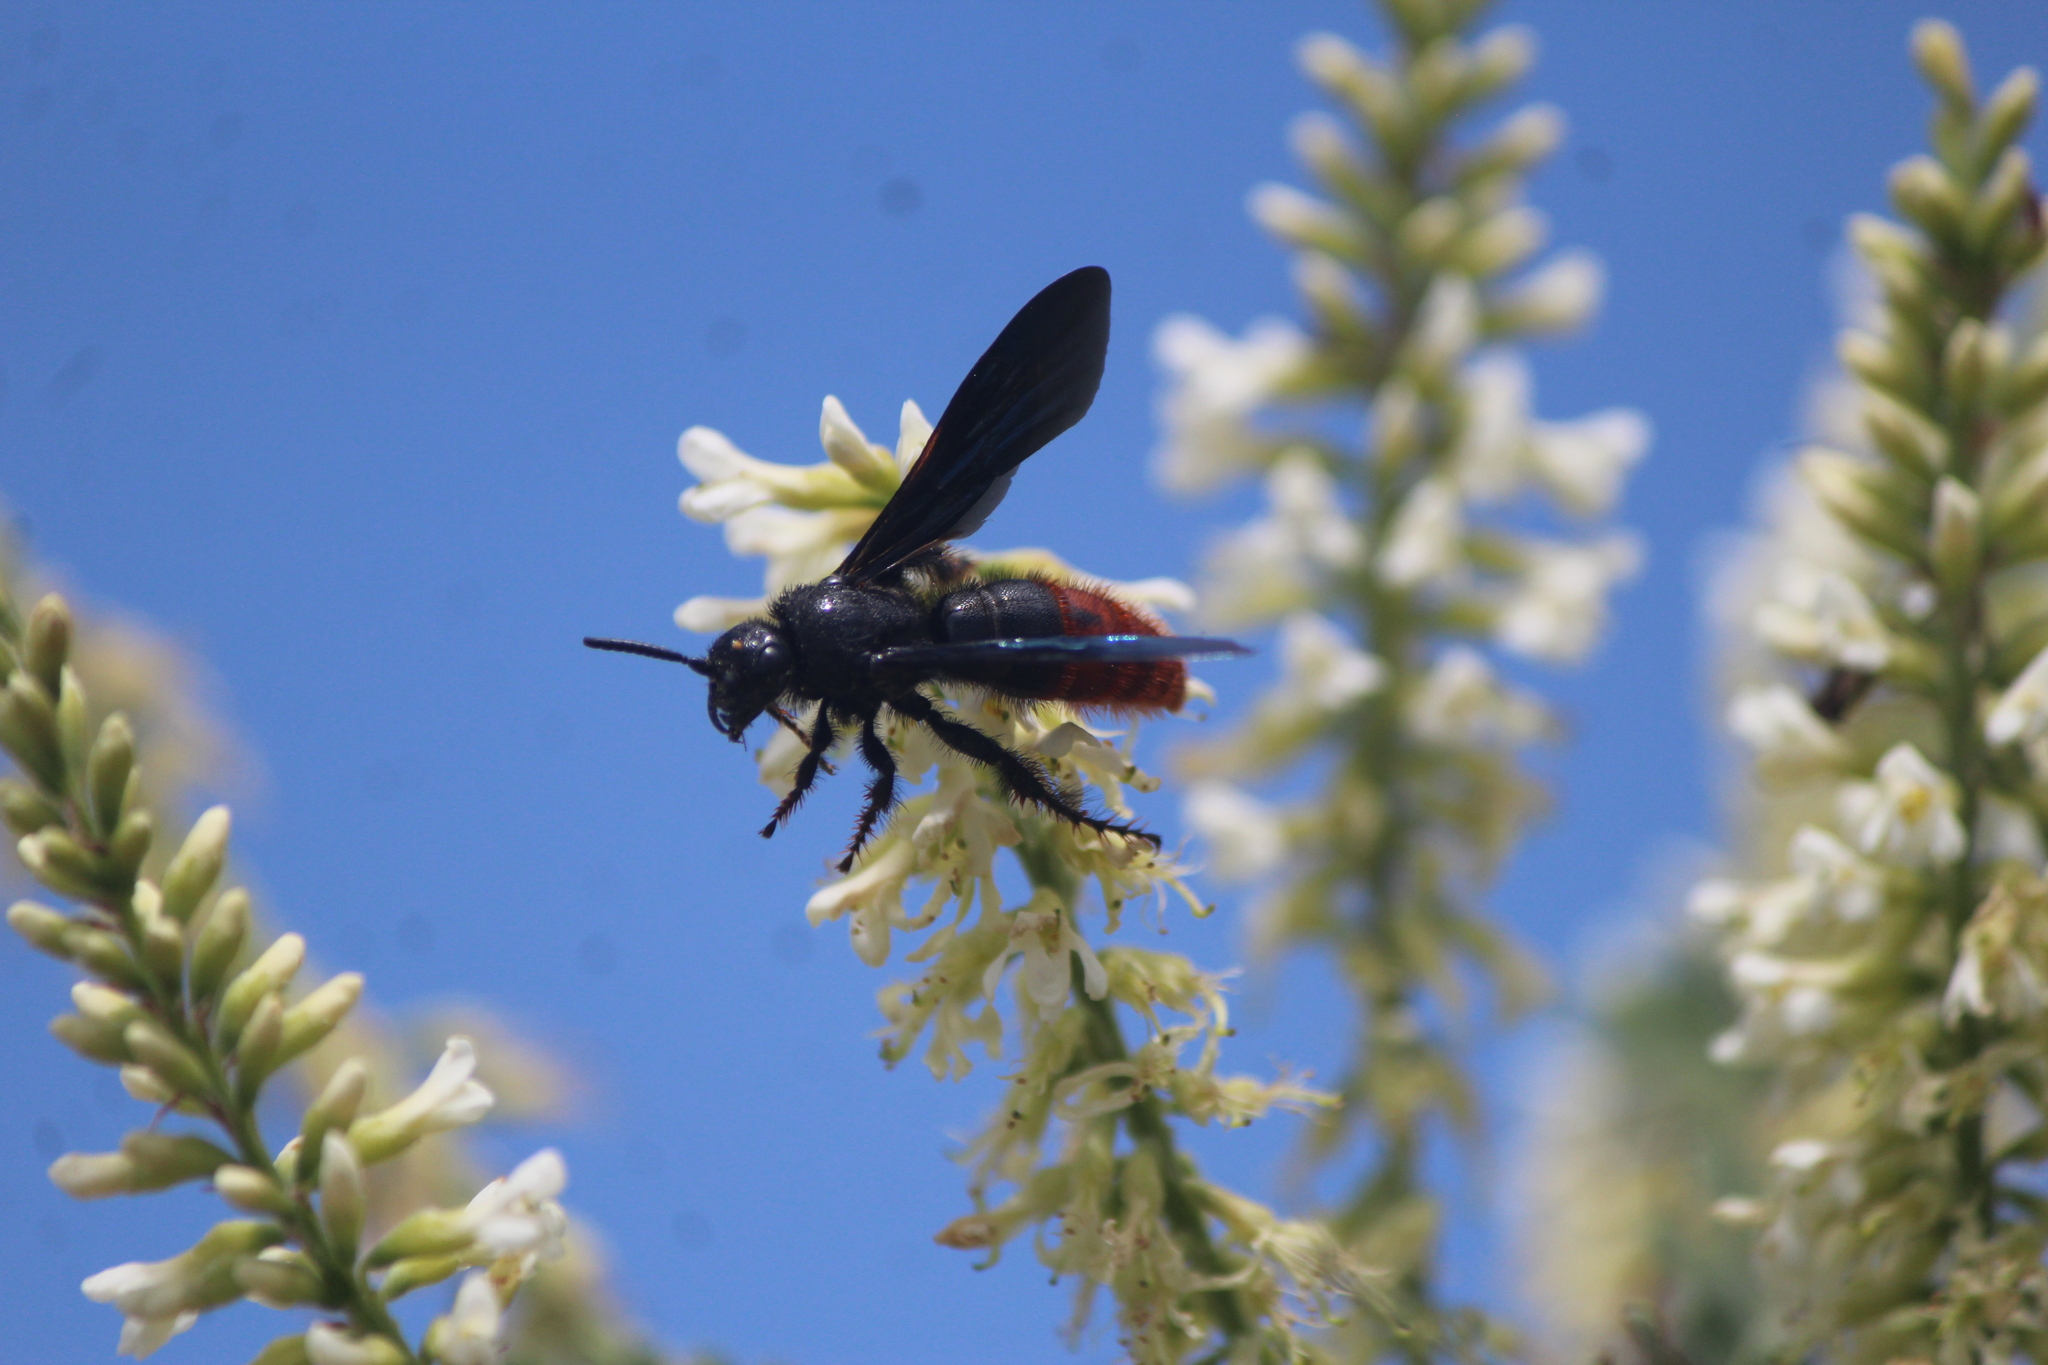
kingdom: Animalia
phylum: Arthropoda
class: Insecta
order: Hymenoptera
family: Scoliidae
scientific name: Scoliidae
